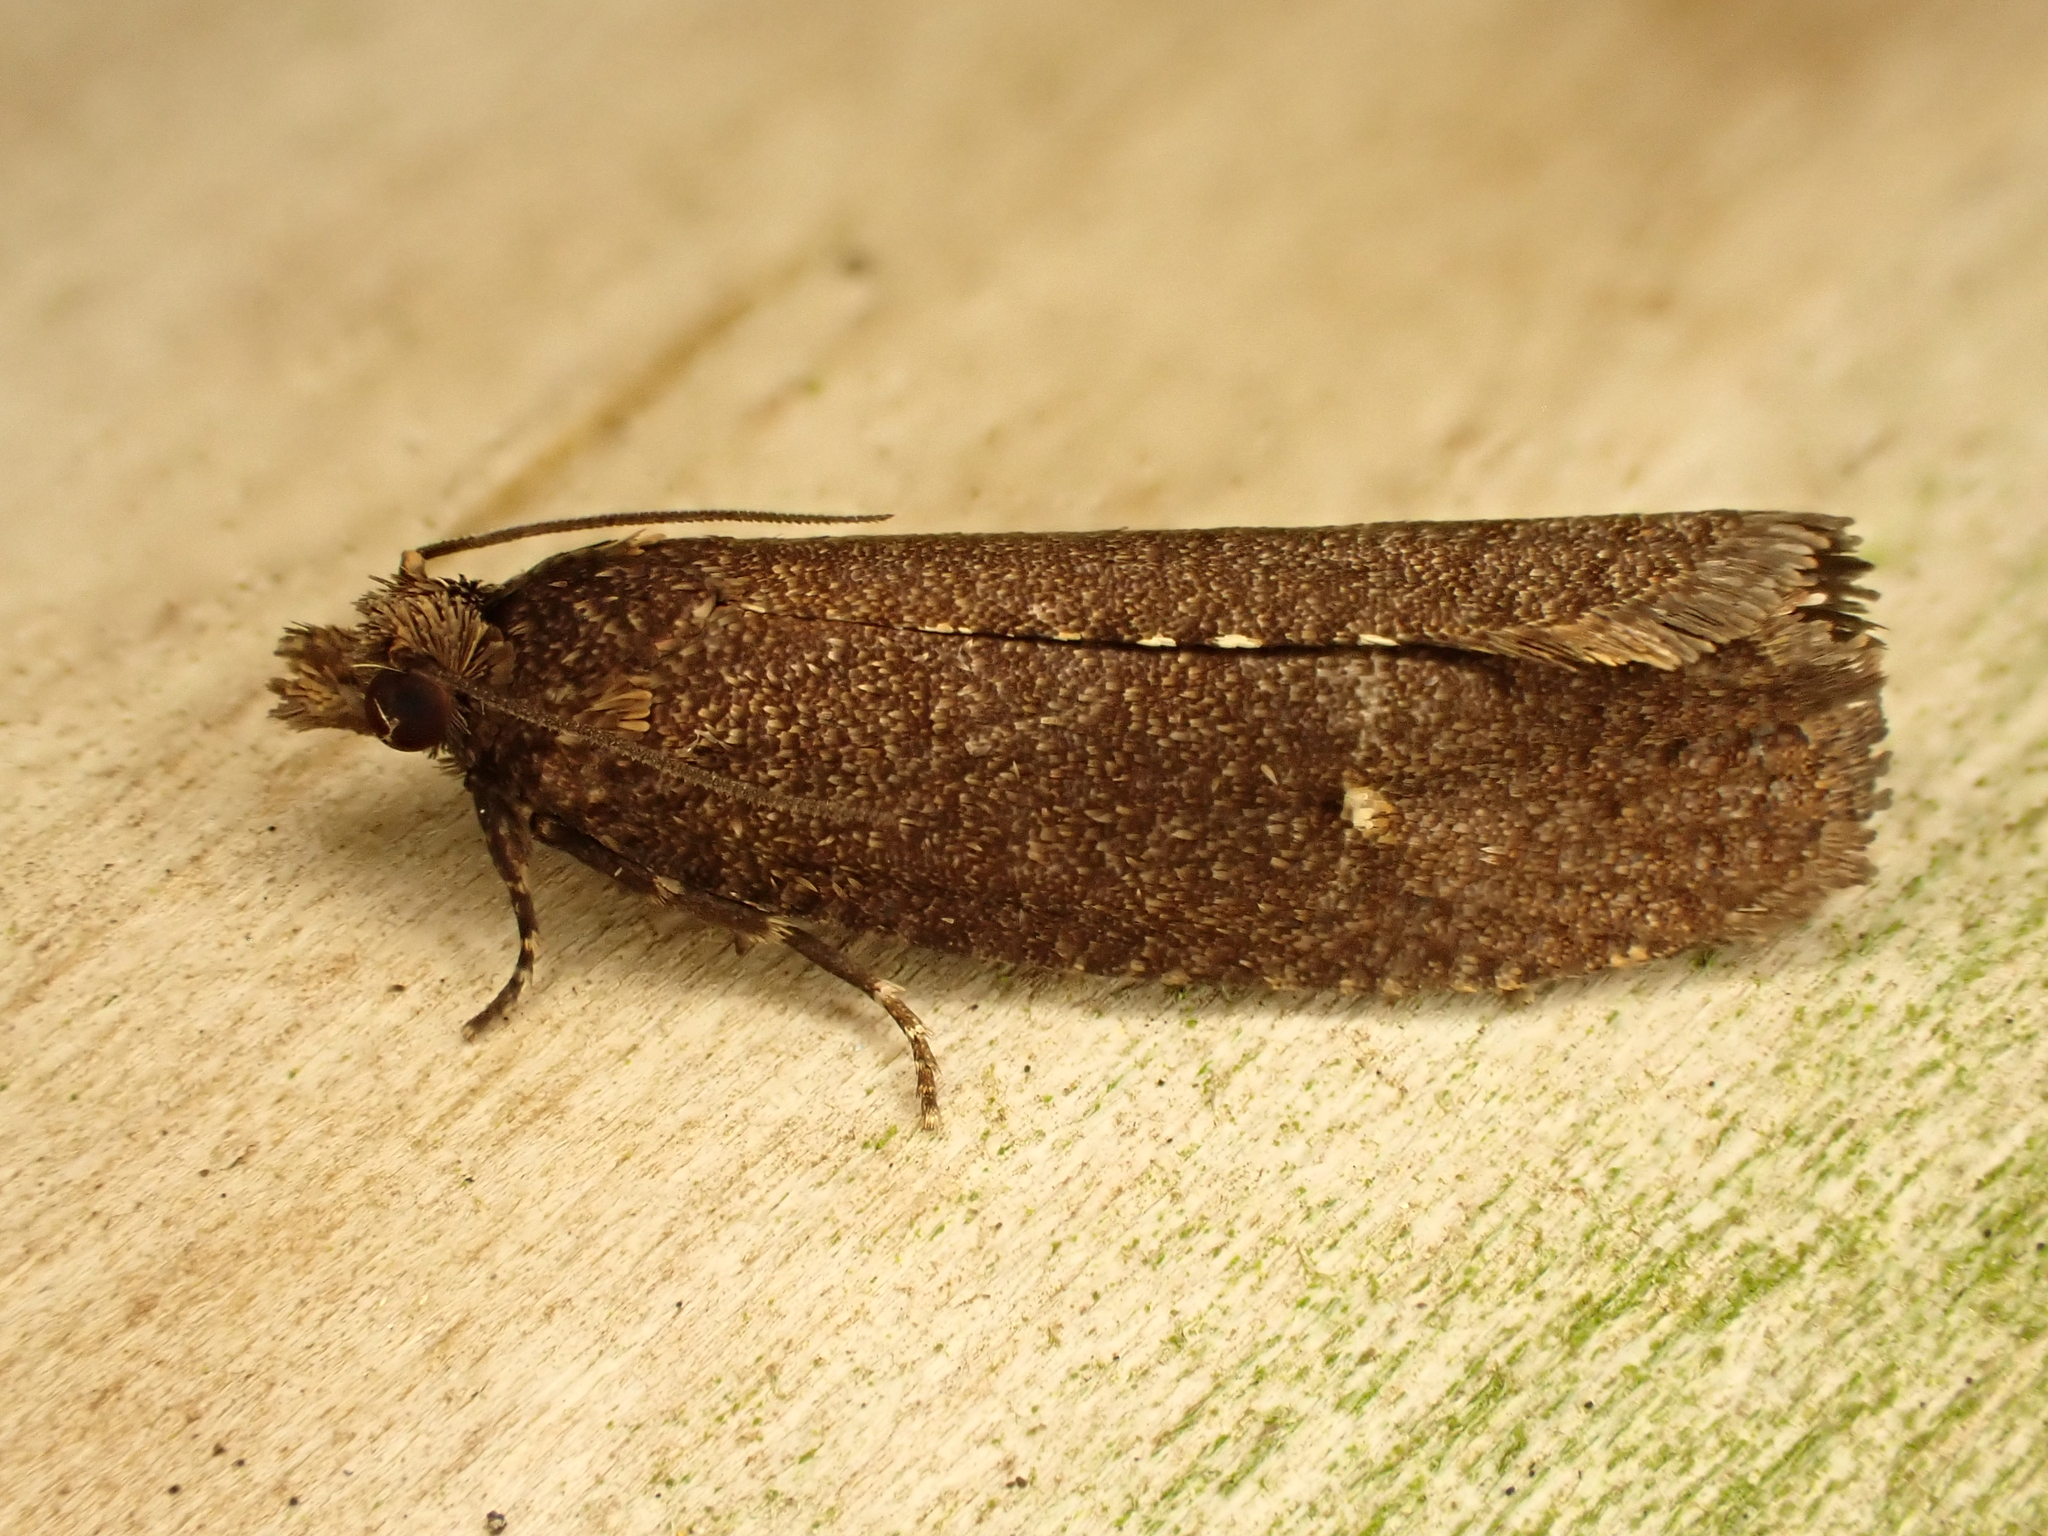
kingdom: Animalia
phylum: Arthropoda
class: Insecta
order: Lepidoptera
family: Tortricidae
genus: Cryptaspasma
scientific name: Cryptaspasma querula
